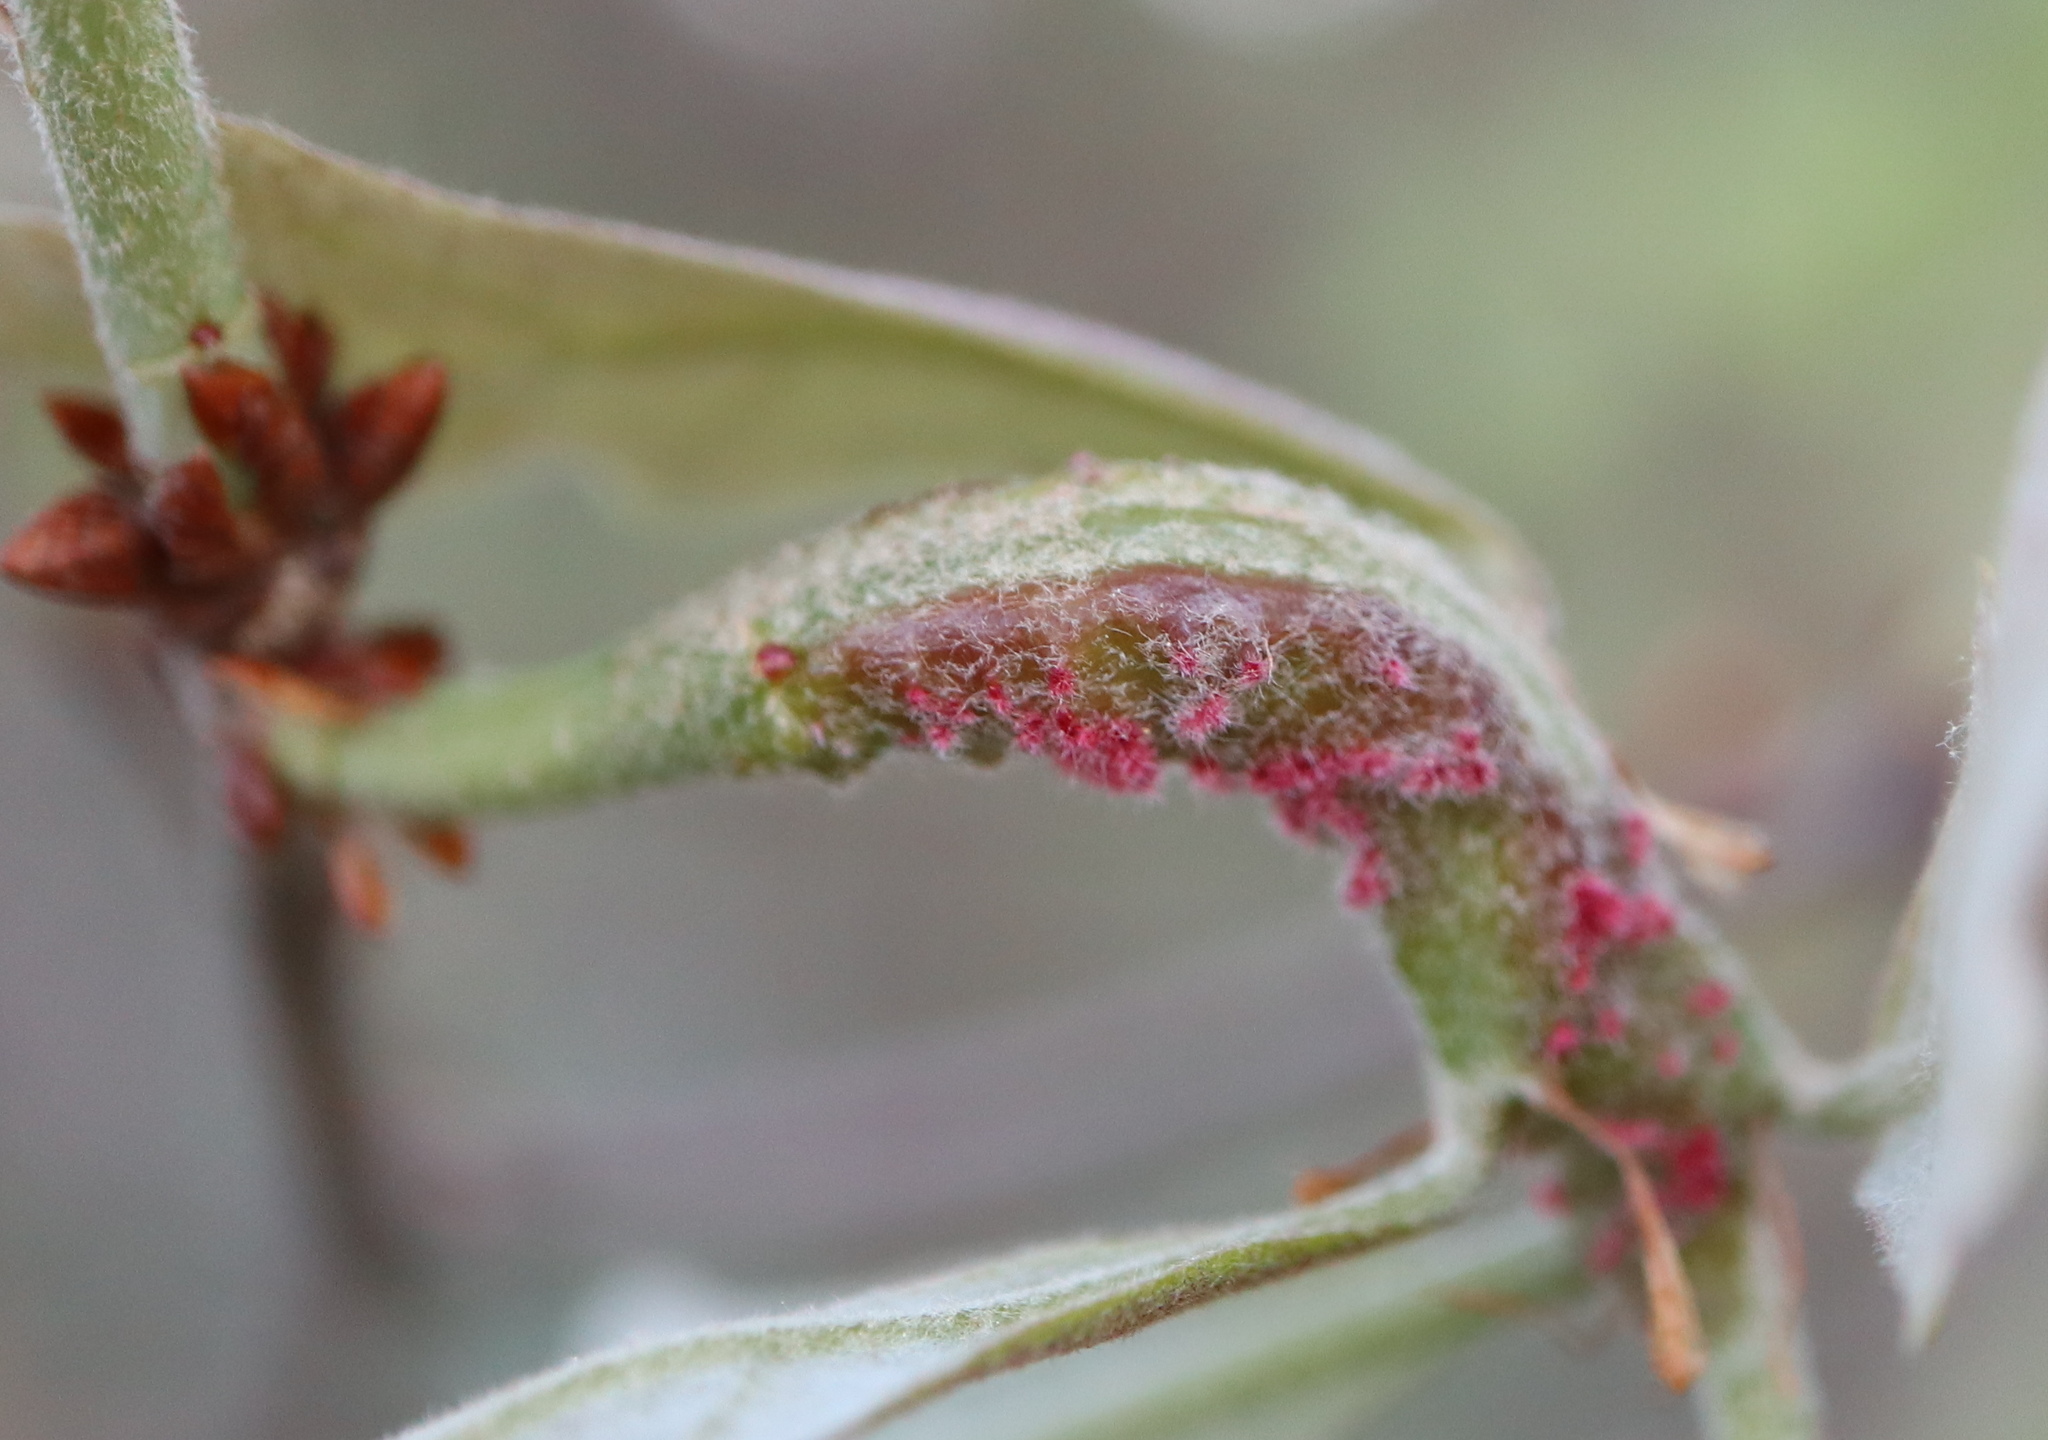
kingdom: Animalia
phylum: Arthropoda
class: Insecta
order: Hymenoptera
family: Cynipidae
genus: Neuroterus
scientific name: Neuroterus quercusbaccarum
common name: Common spangle gall
